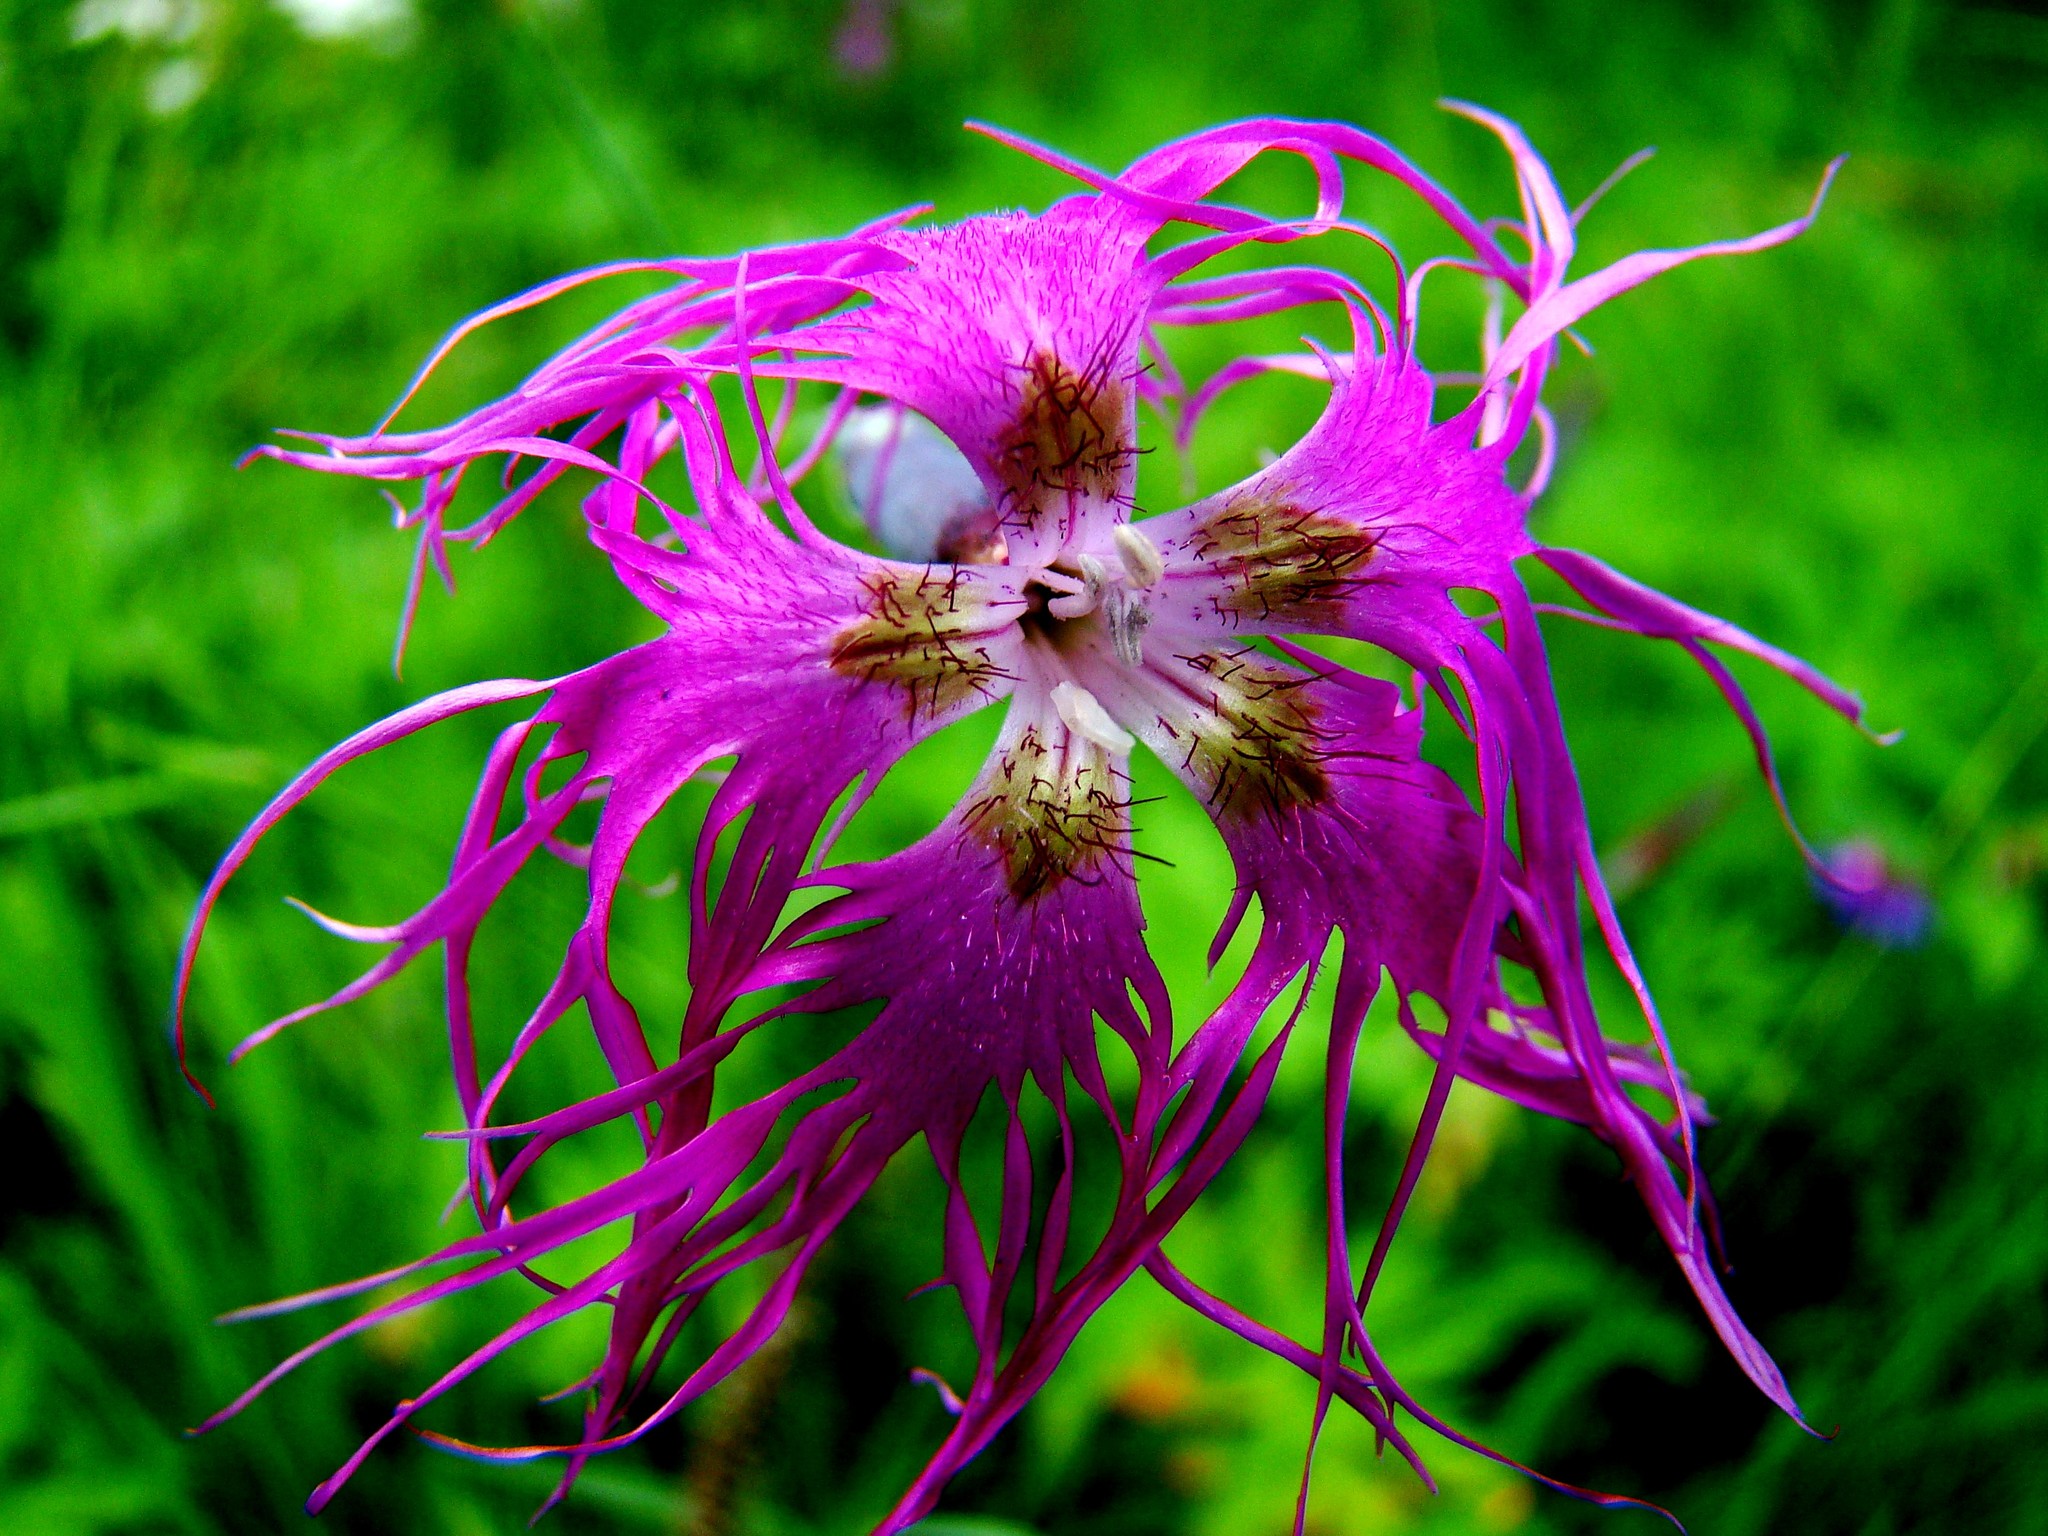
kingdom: Plantae
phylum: Tracheophyta
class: Magnoliopsida
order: Caryophyllales
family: Caryophyllaceae
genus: Dianthus
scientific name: Dianthus superbus
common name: Fringed pink
